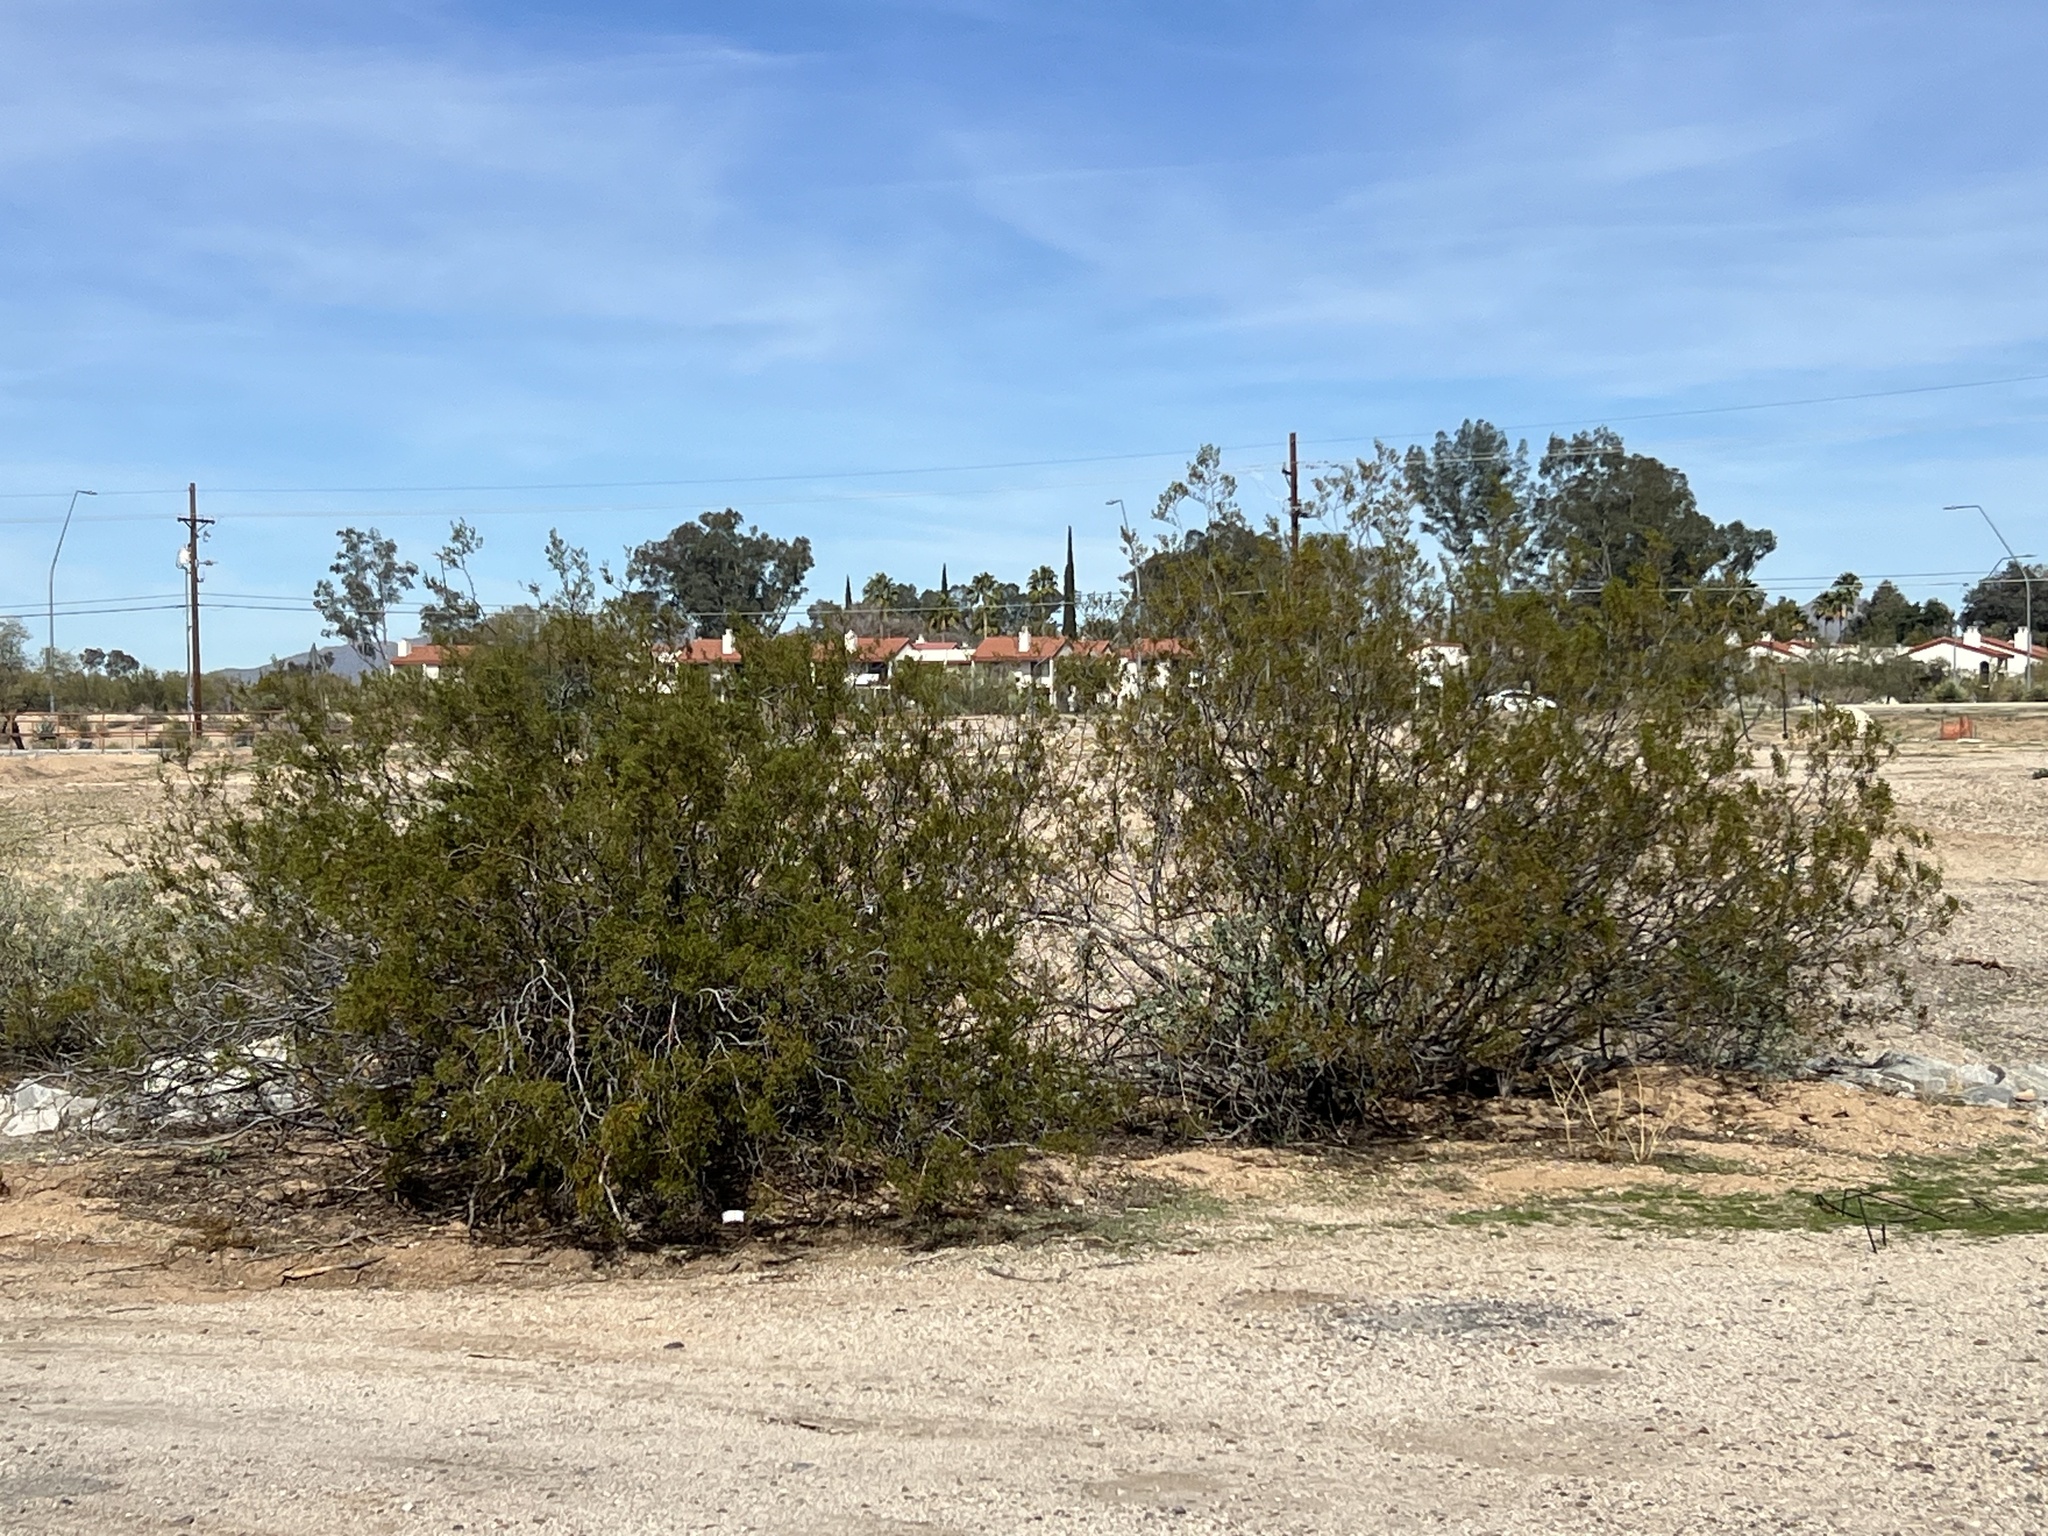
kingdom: Plantae
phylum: Tracheophyta
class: Magnoliopsida
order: Zygophyllales
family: Zygophyllaceae
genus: Larrea
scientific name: Larrea tridentata
